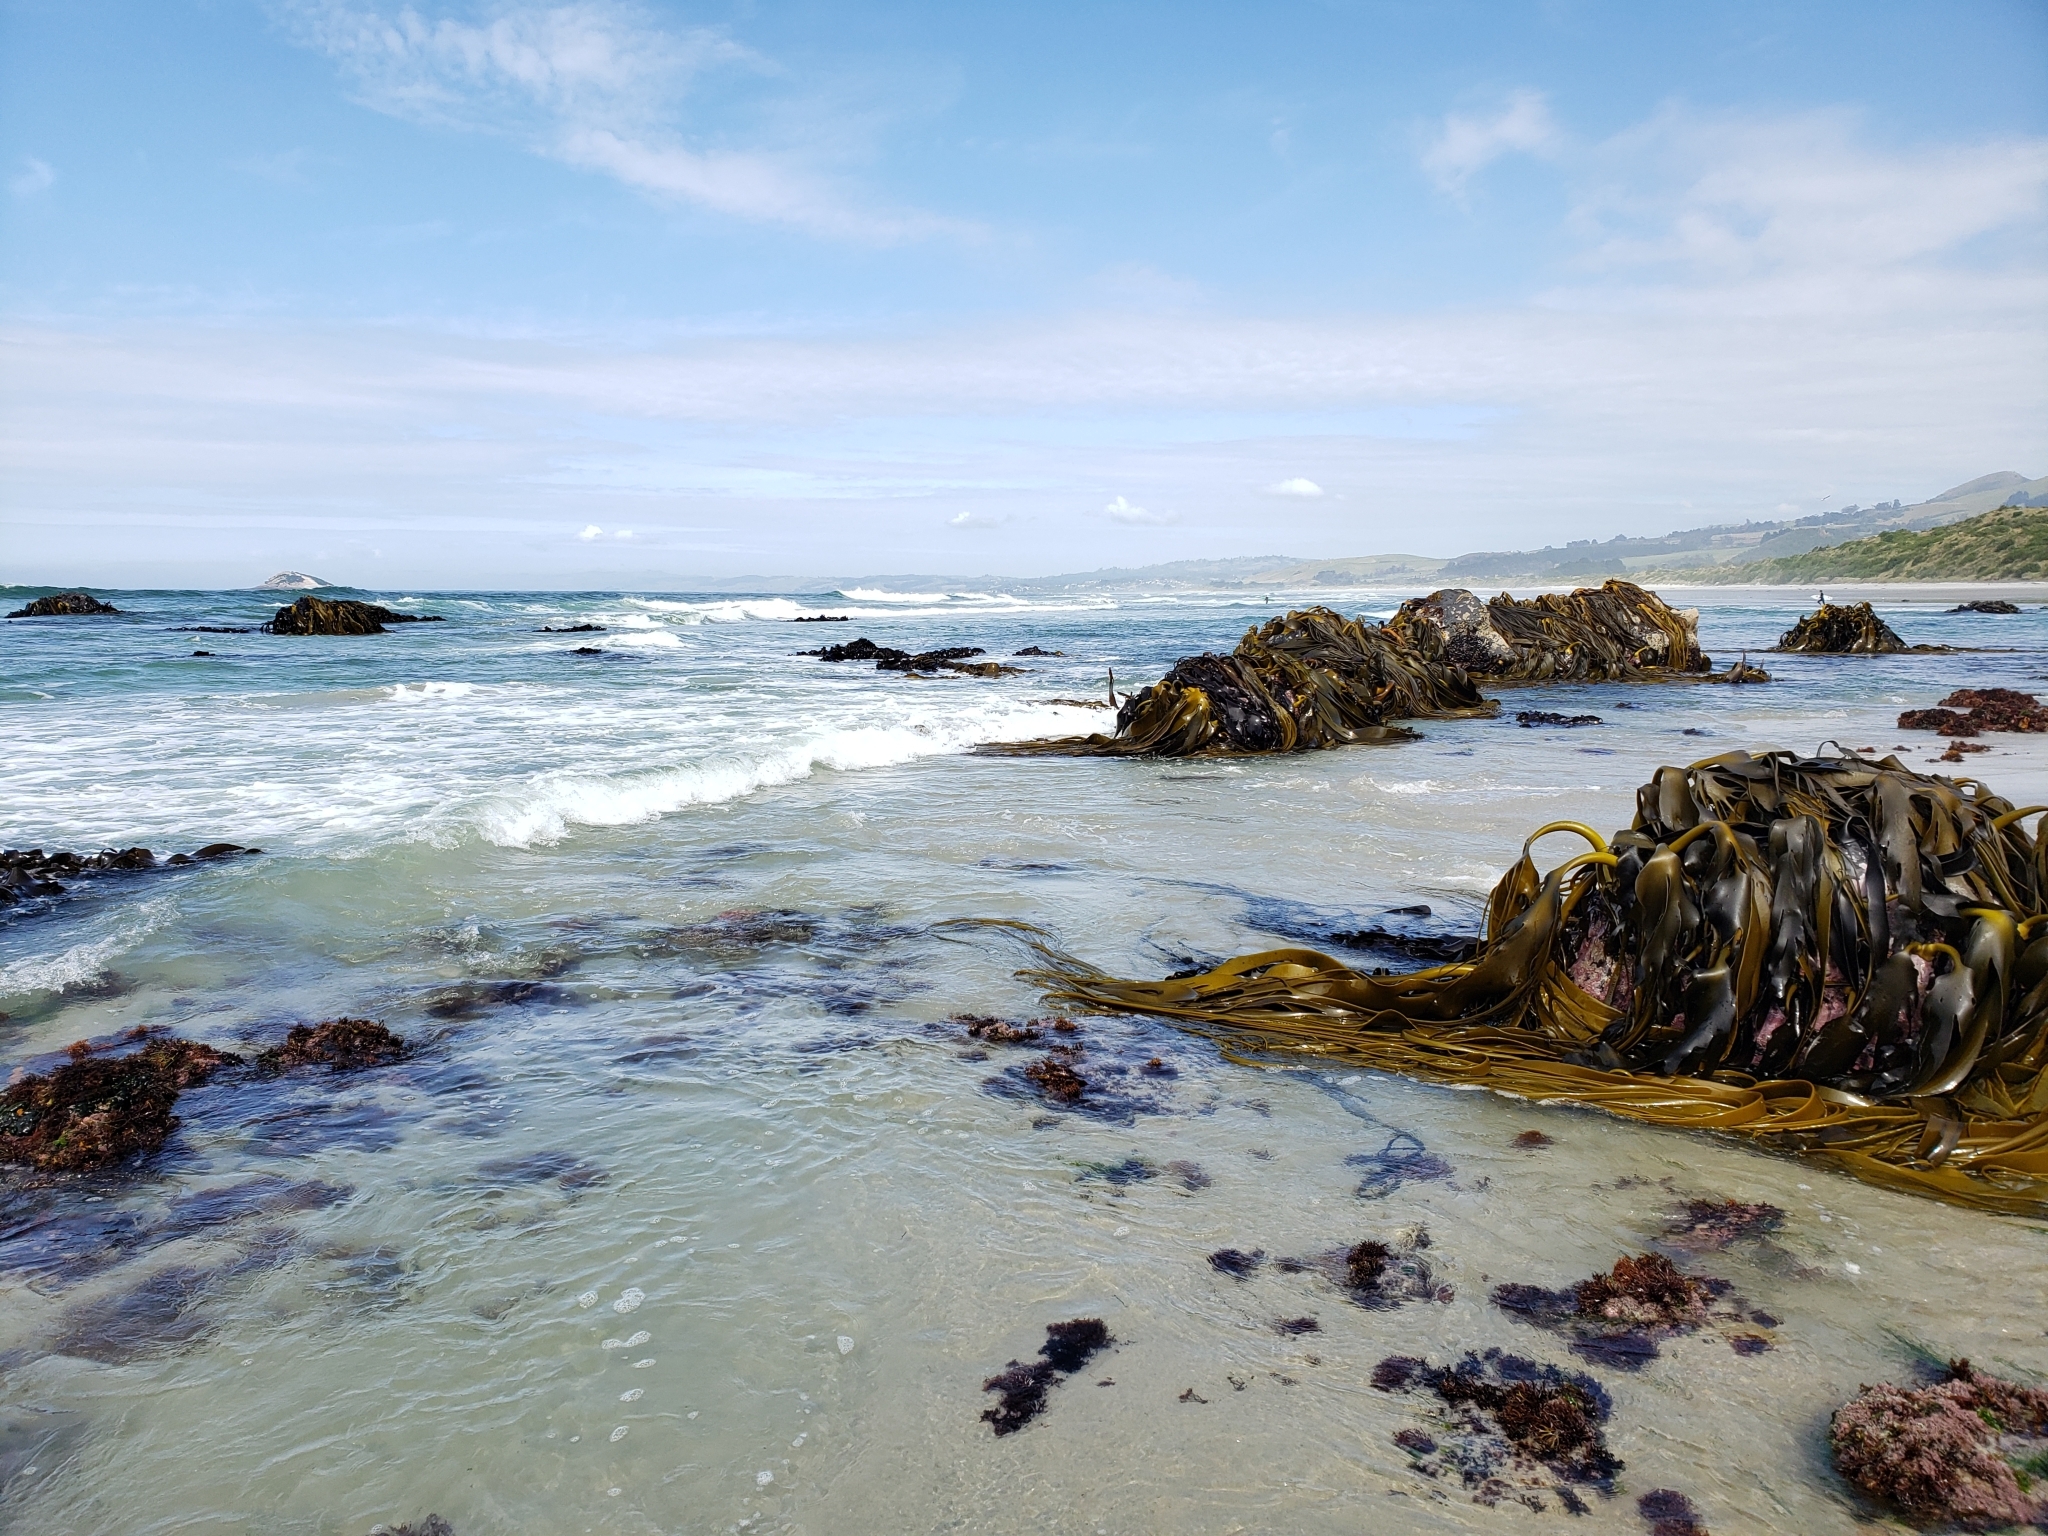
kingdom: Chromista
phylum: Ochrophyta
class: Phaeophyceae
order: Fucales
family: Durvillaeaceae
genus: Durvillaea
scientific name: Durvillaea antarctica
